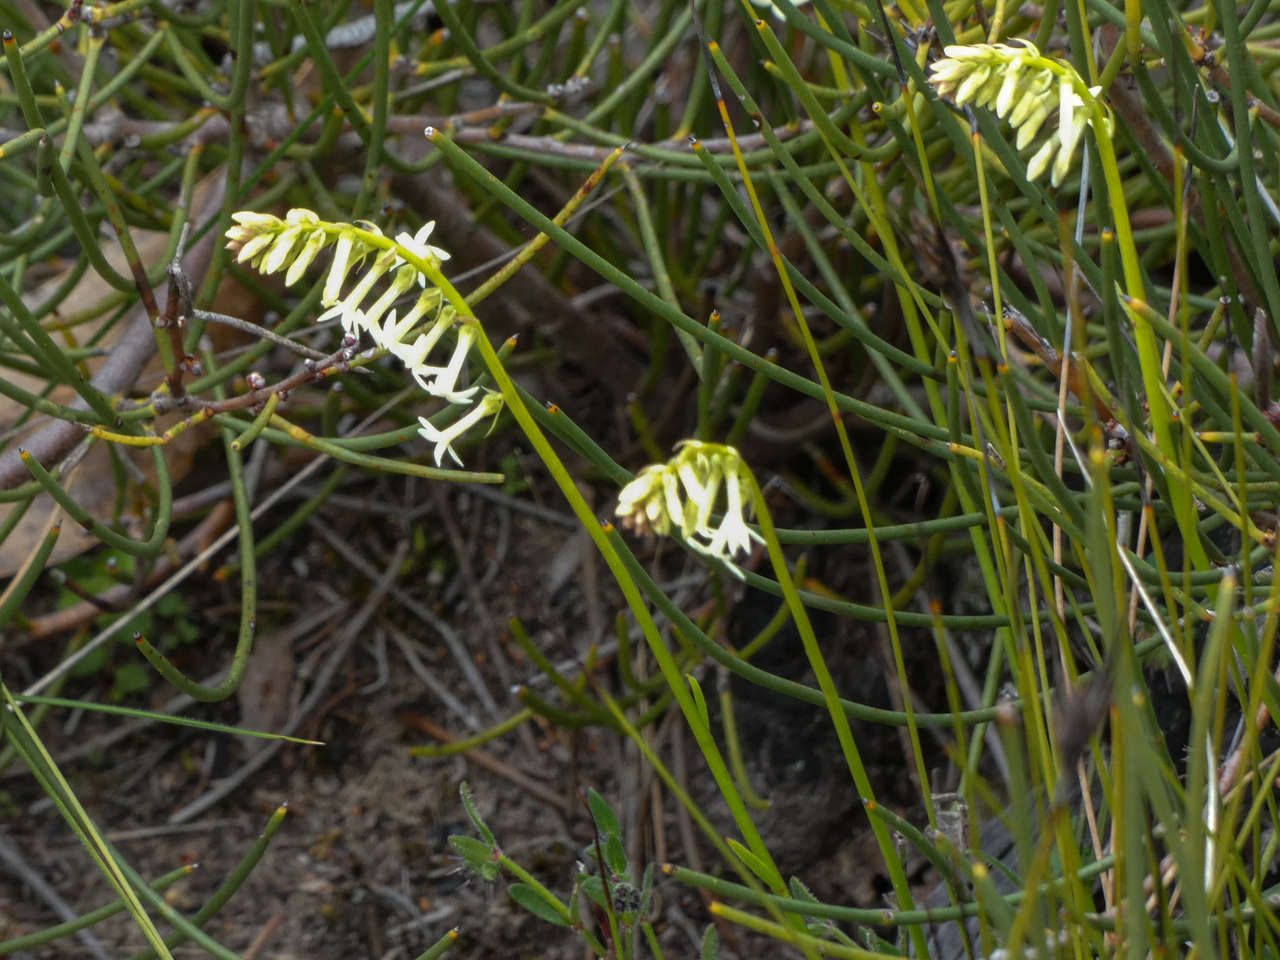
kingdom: Plantae
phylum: Tracheophyta
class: Magnoliopsida
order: Celastrales
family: Celastraceae
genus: Stackhousia
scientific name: Stackhousia monogyna
